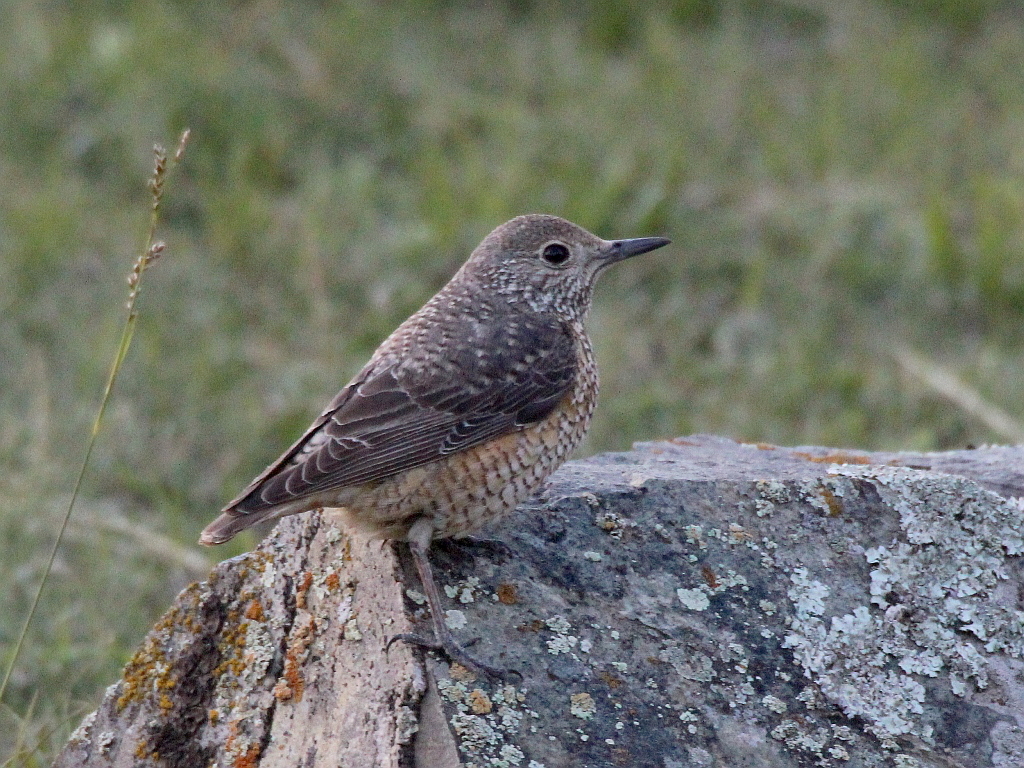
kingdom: Animalia
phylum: Chordata
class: Aves
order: Passeriformes
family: Muscicapidae
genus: Monticola
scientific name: Monticola saxatilis
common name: Rufous-tailed rock thrush
